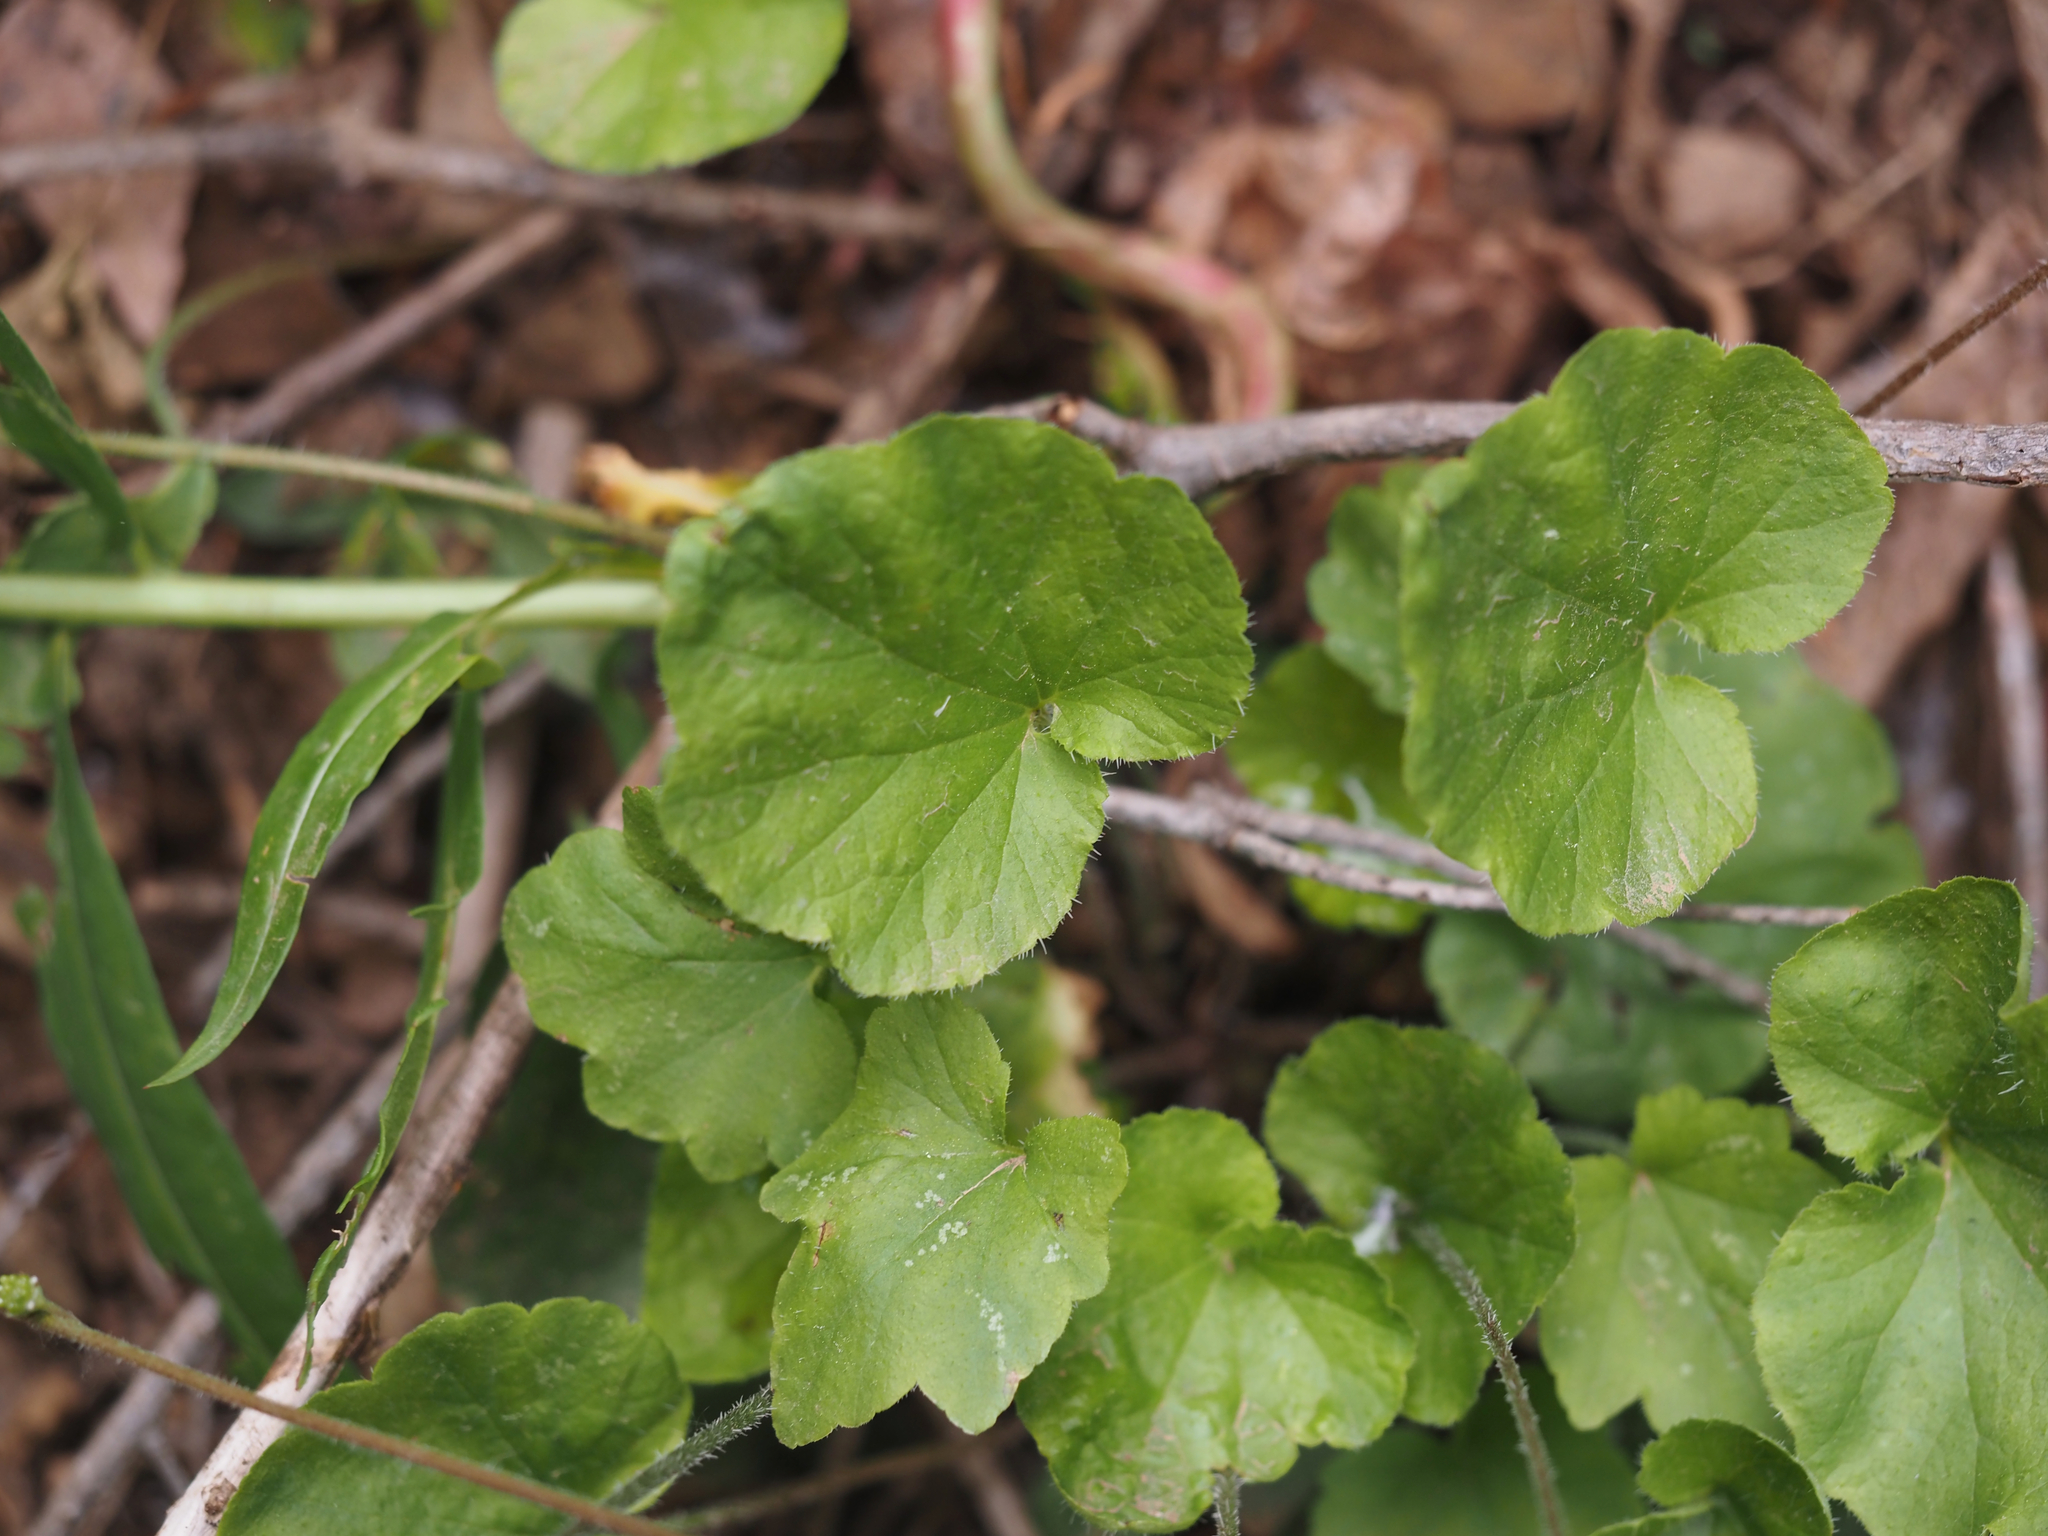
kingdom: Plantae
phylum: Tracheophyta
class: Magnoliopsida
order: Saxifragales
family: Saxifragaceae
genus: Ozomelis
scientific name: Ozomelis trifida
